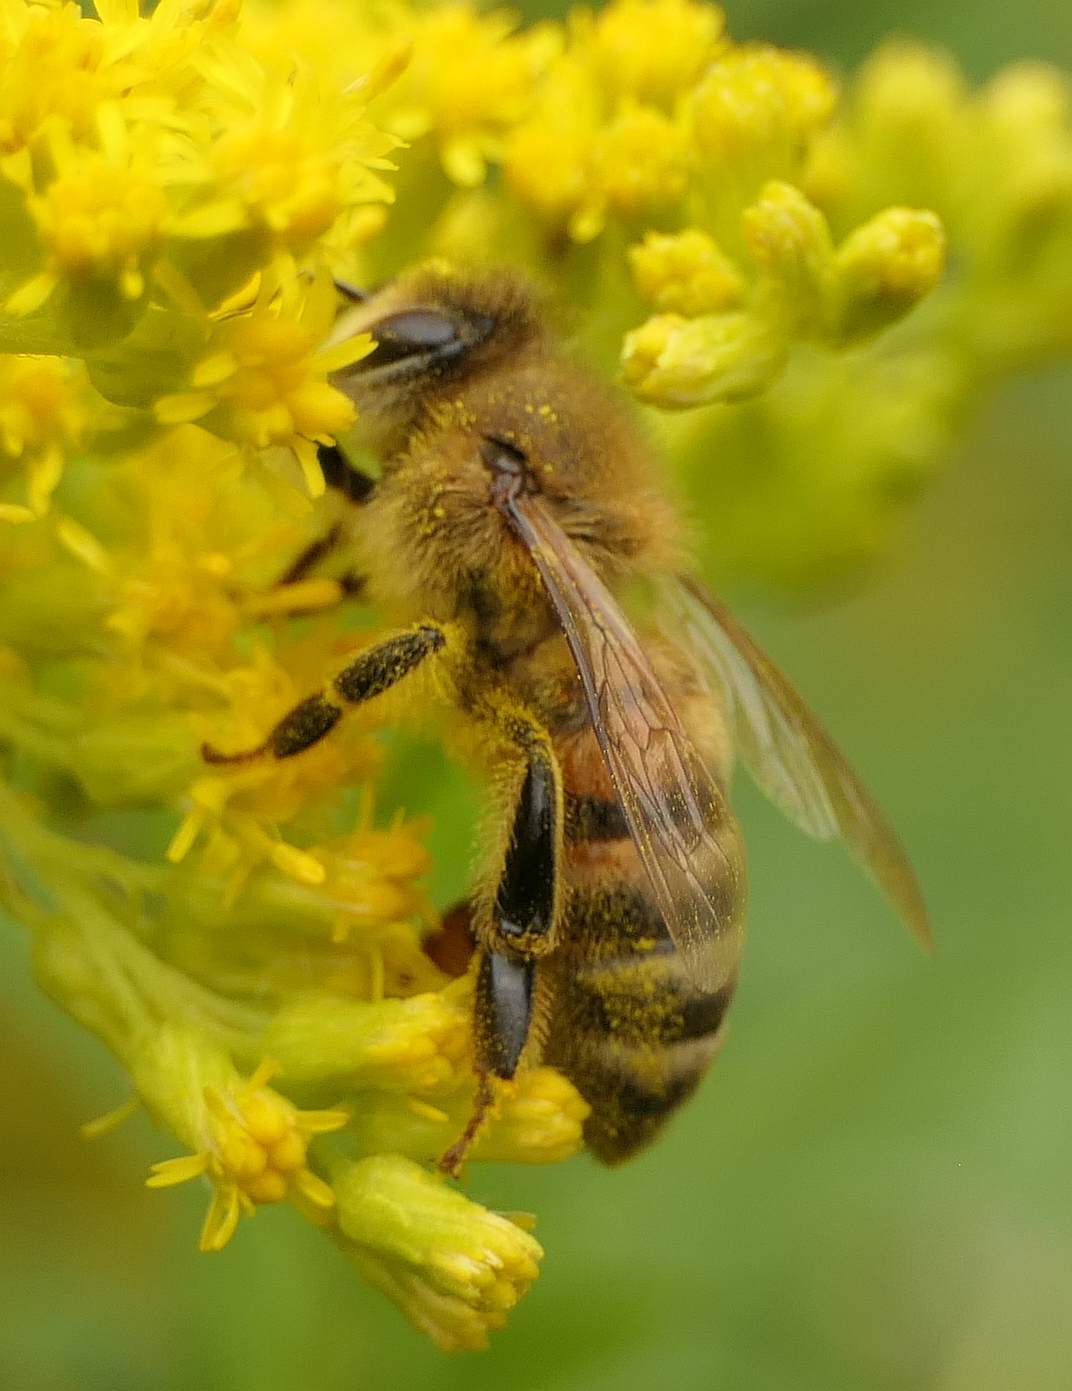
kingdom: Animalia
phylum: Arthropoda
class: Insecta
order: Hymenoptera
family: Apidae
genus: Apis
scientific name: Apis mellifera
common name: Honey bee
